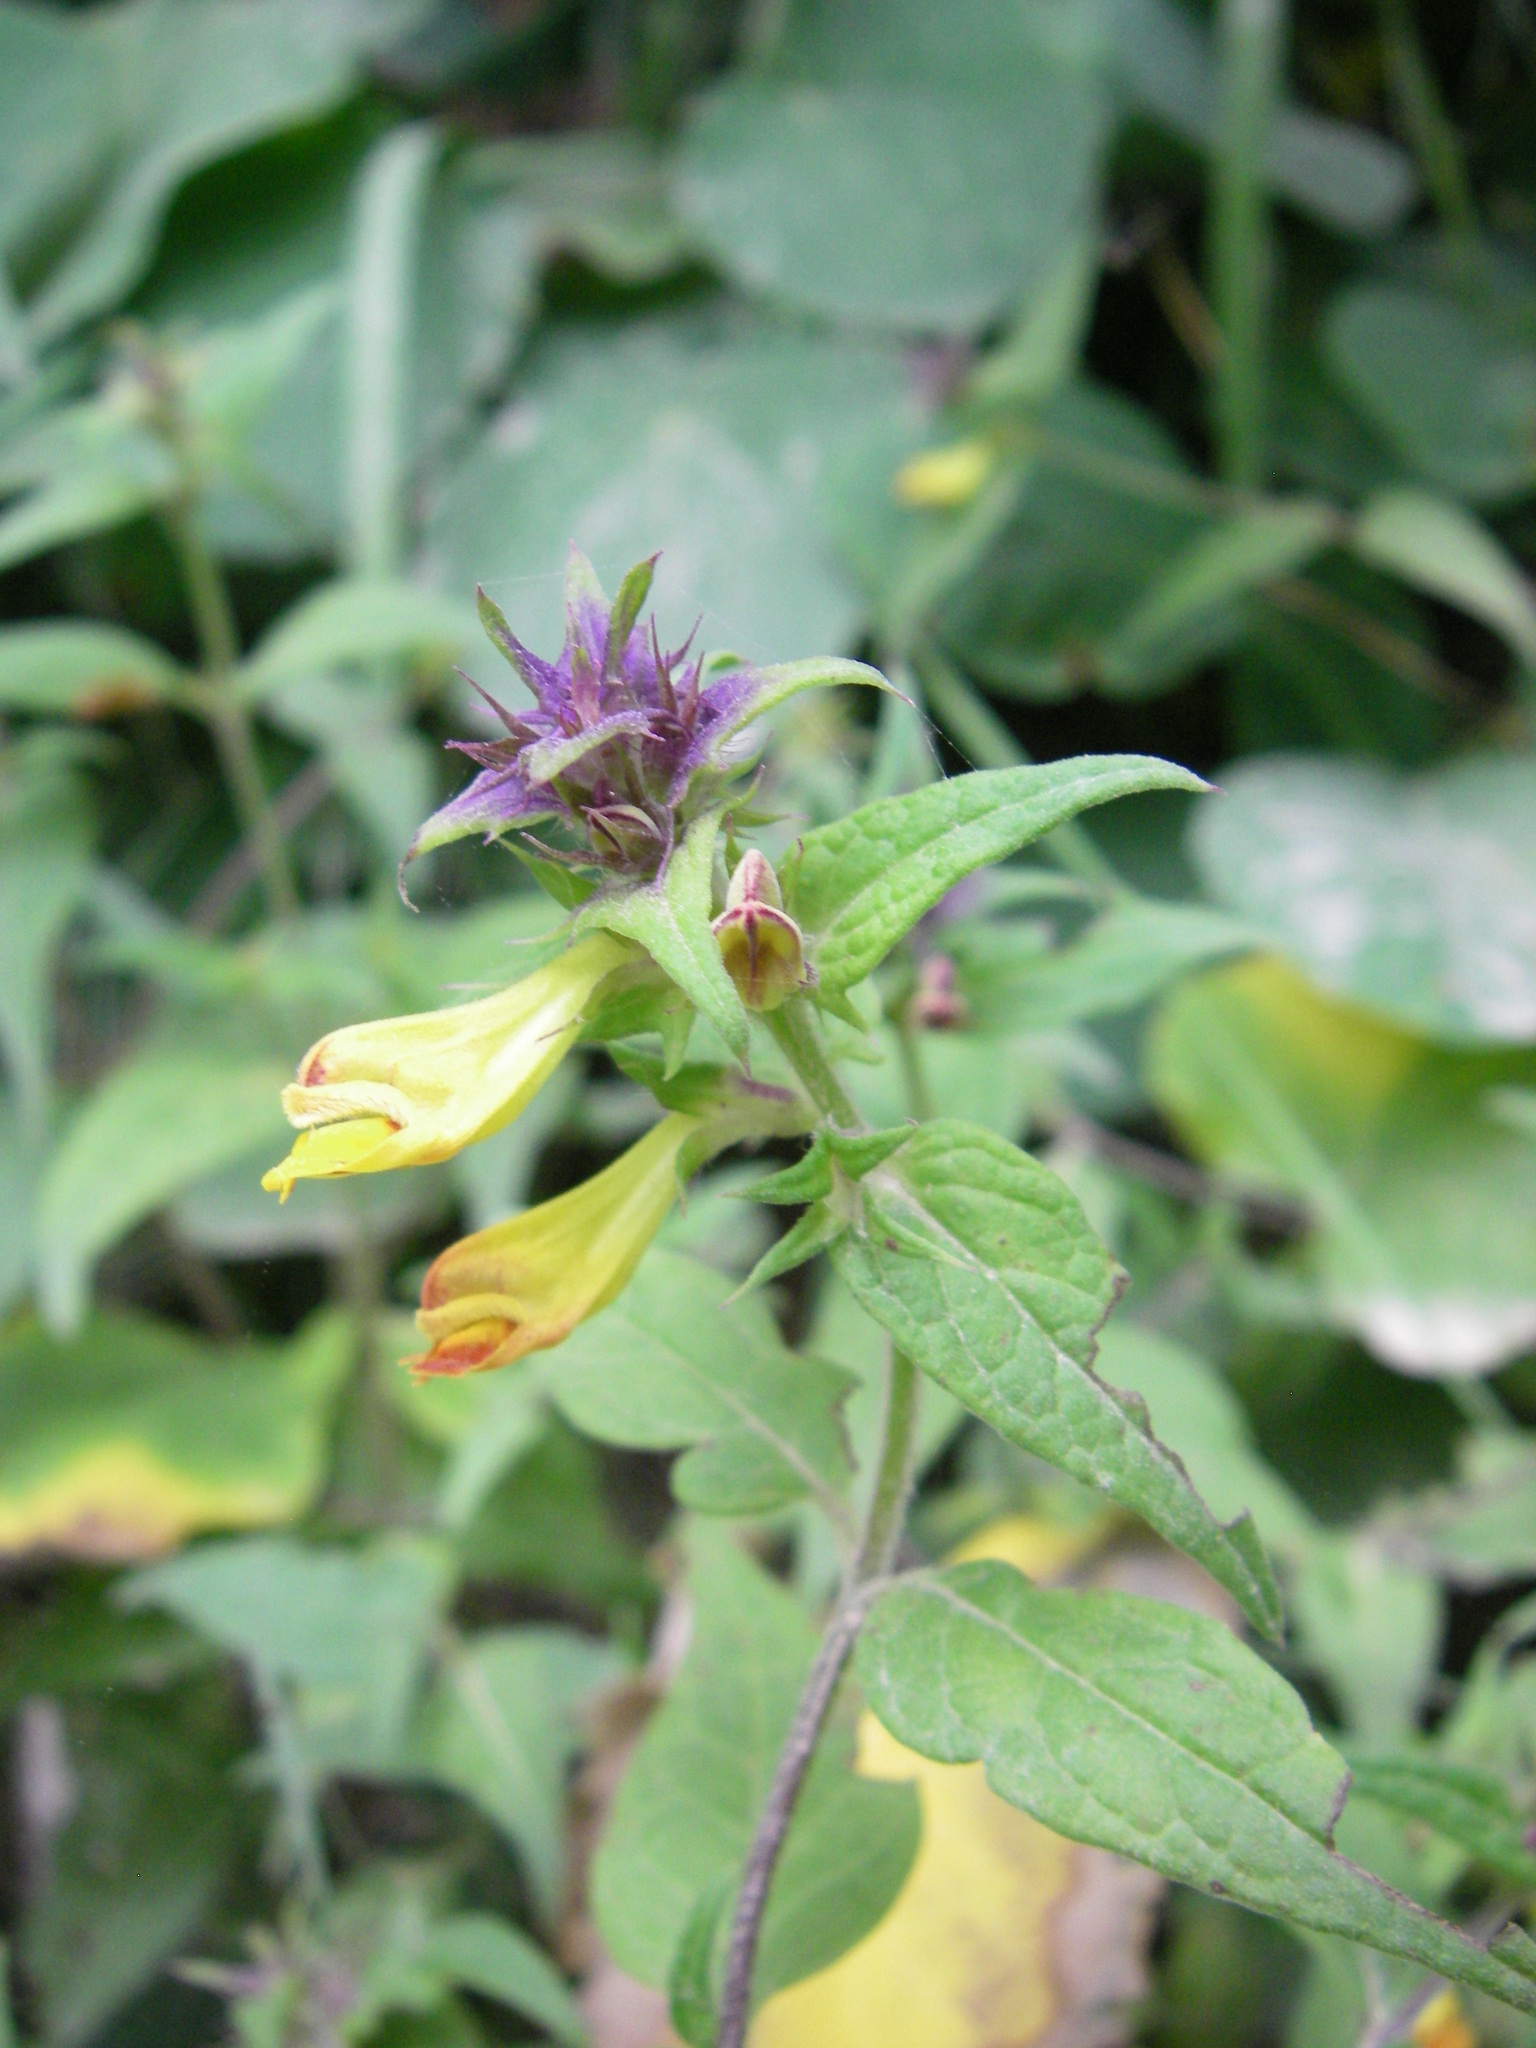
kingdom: Plantae
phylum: Tracheophyta
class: Magnoliopsida
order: Lamiales
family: Orobanchaceae
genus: Melampyrum
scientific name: Melampyrum nemorosum
